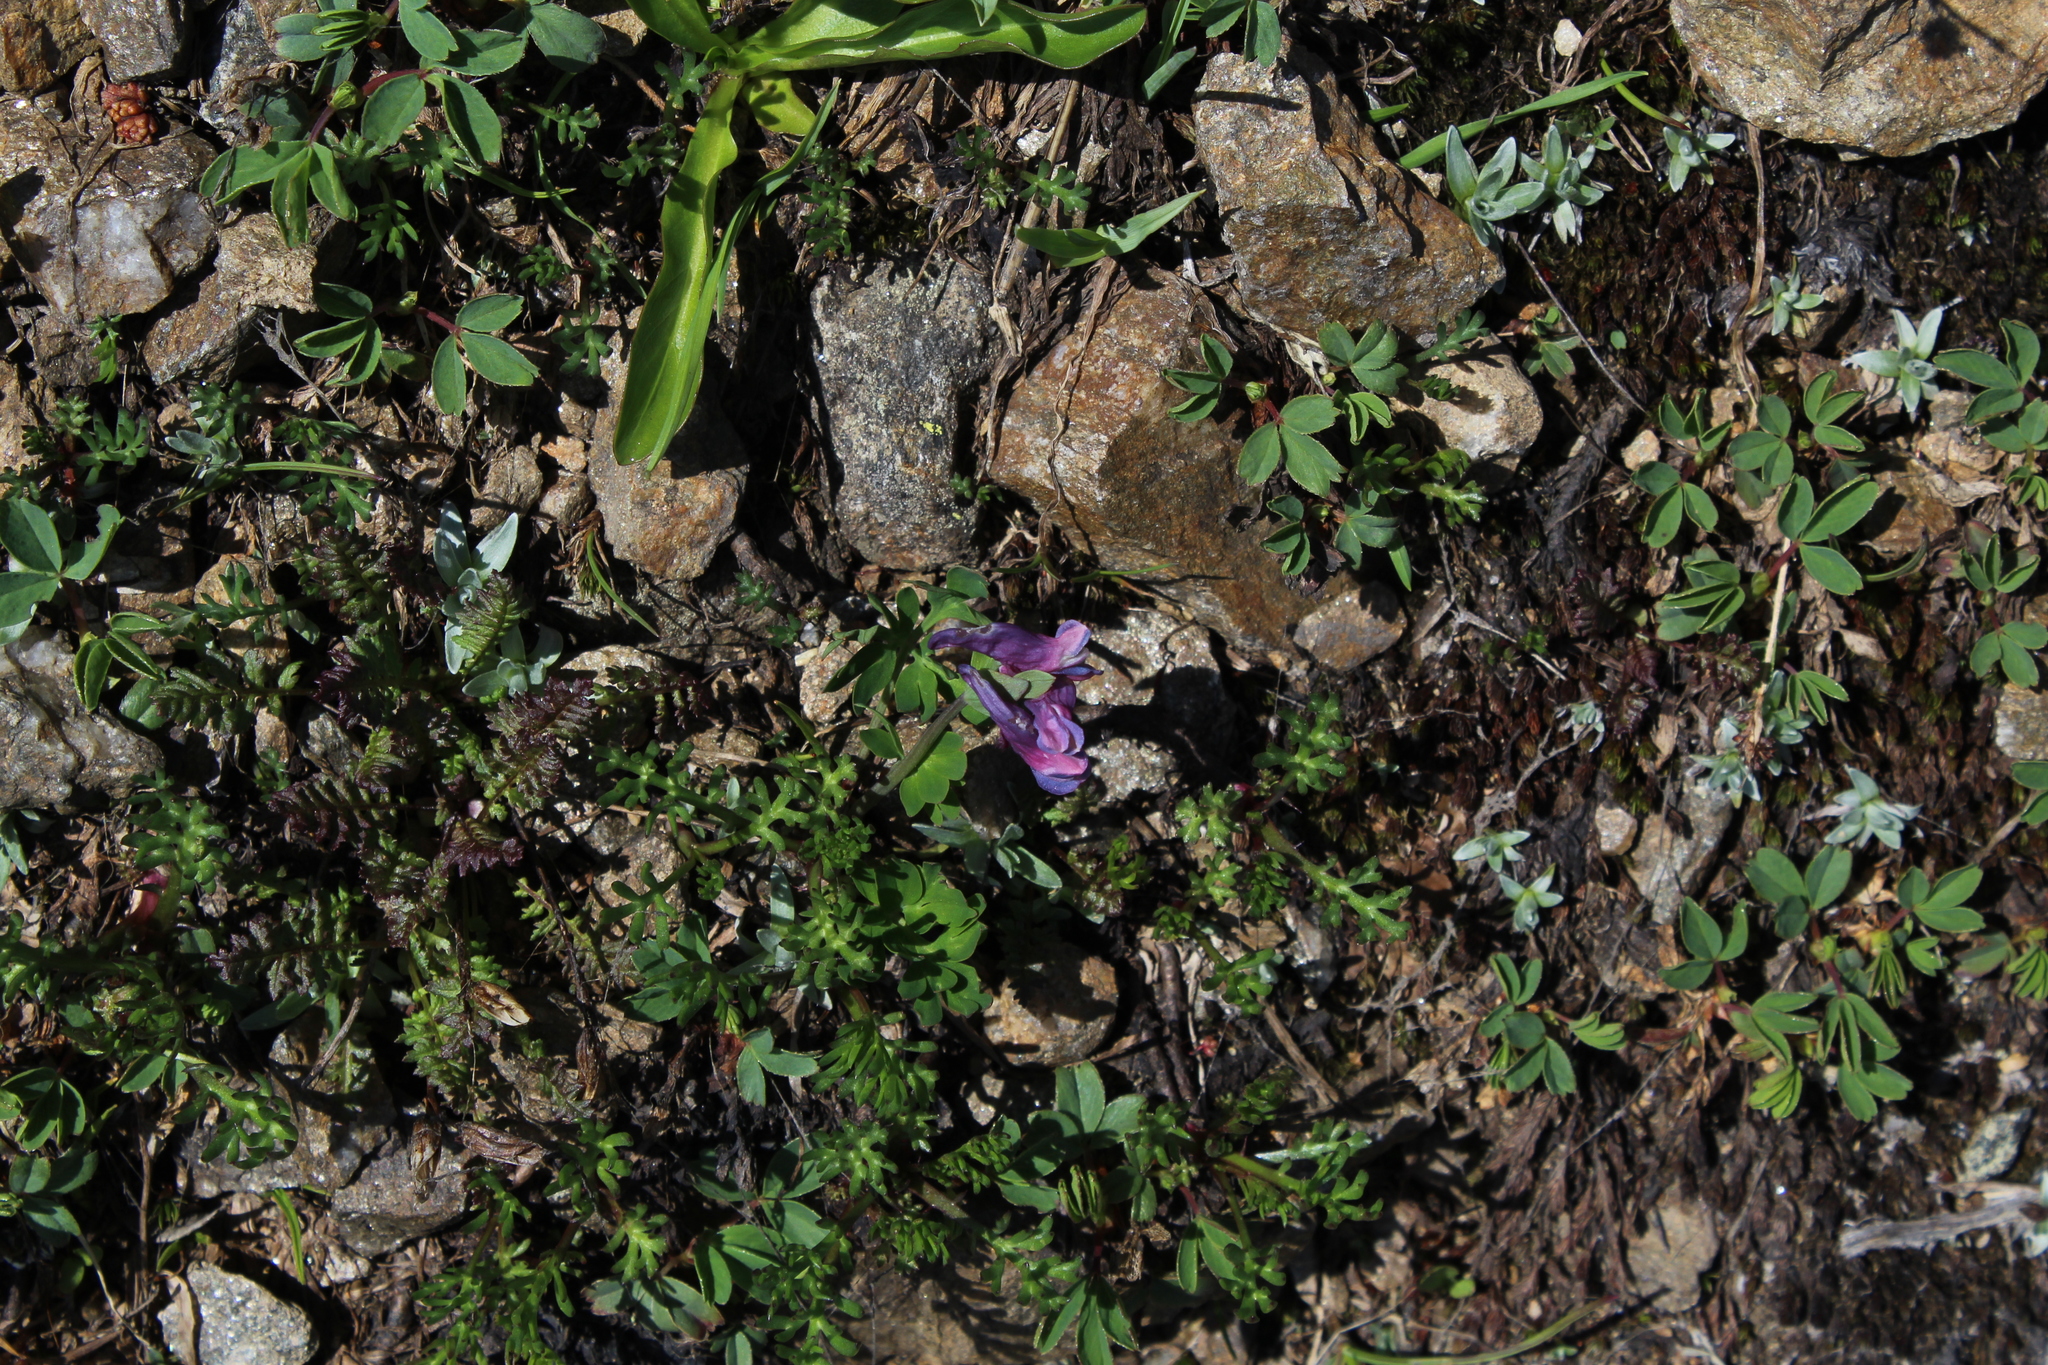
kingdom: Plantae
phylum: Tracheophyta
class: Magnoliopsida
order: Ranunculales
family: Papaveraceae
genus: Corydalis
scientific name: Corydalis conorhiza
